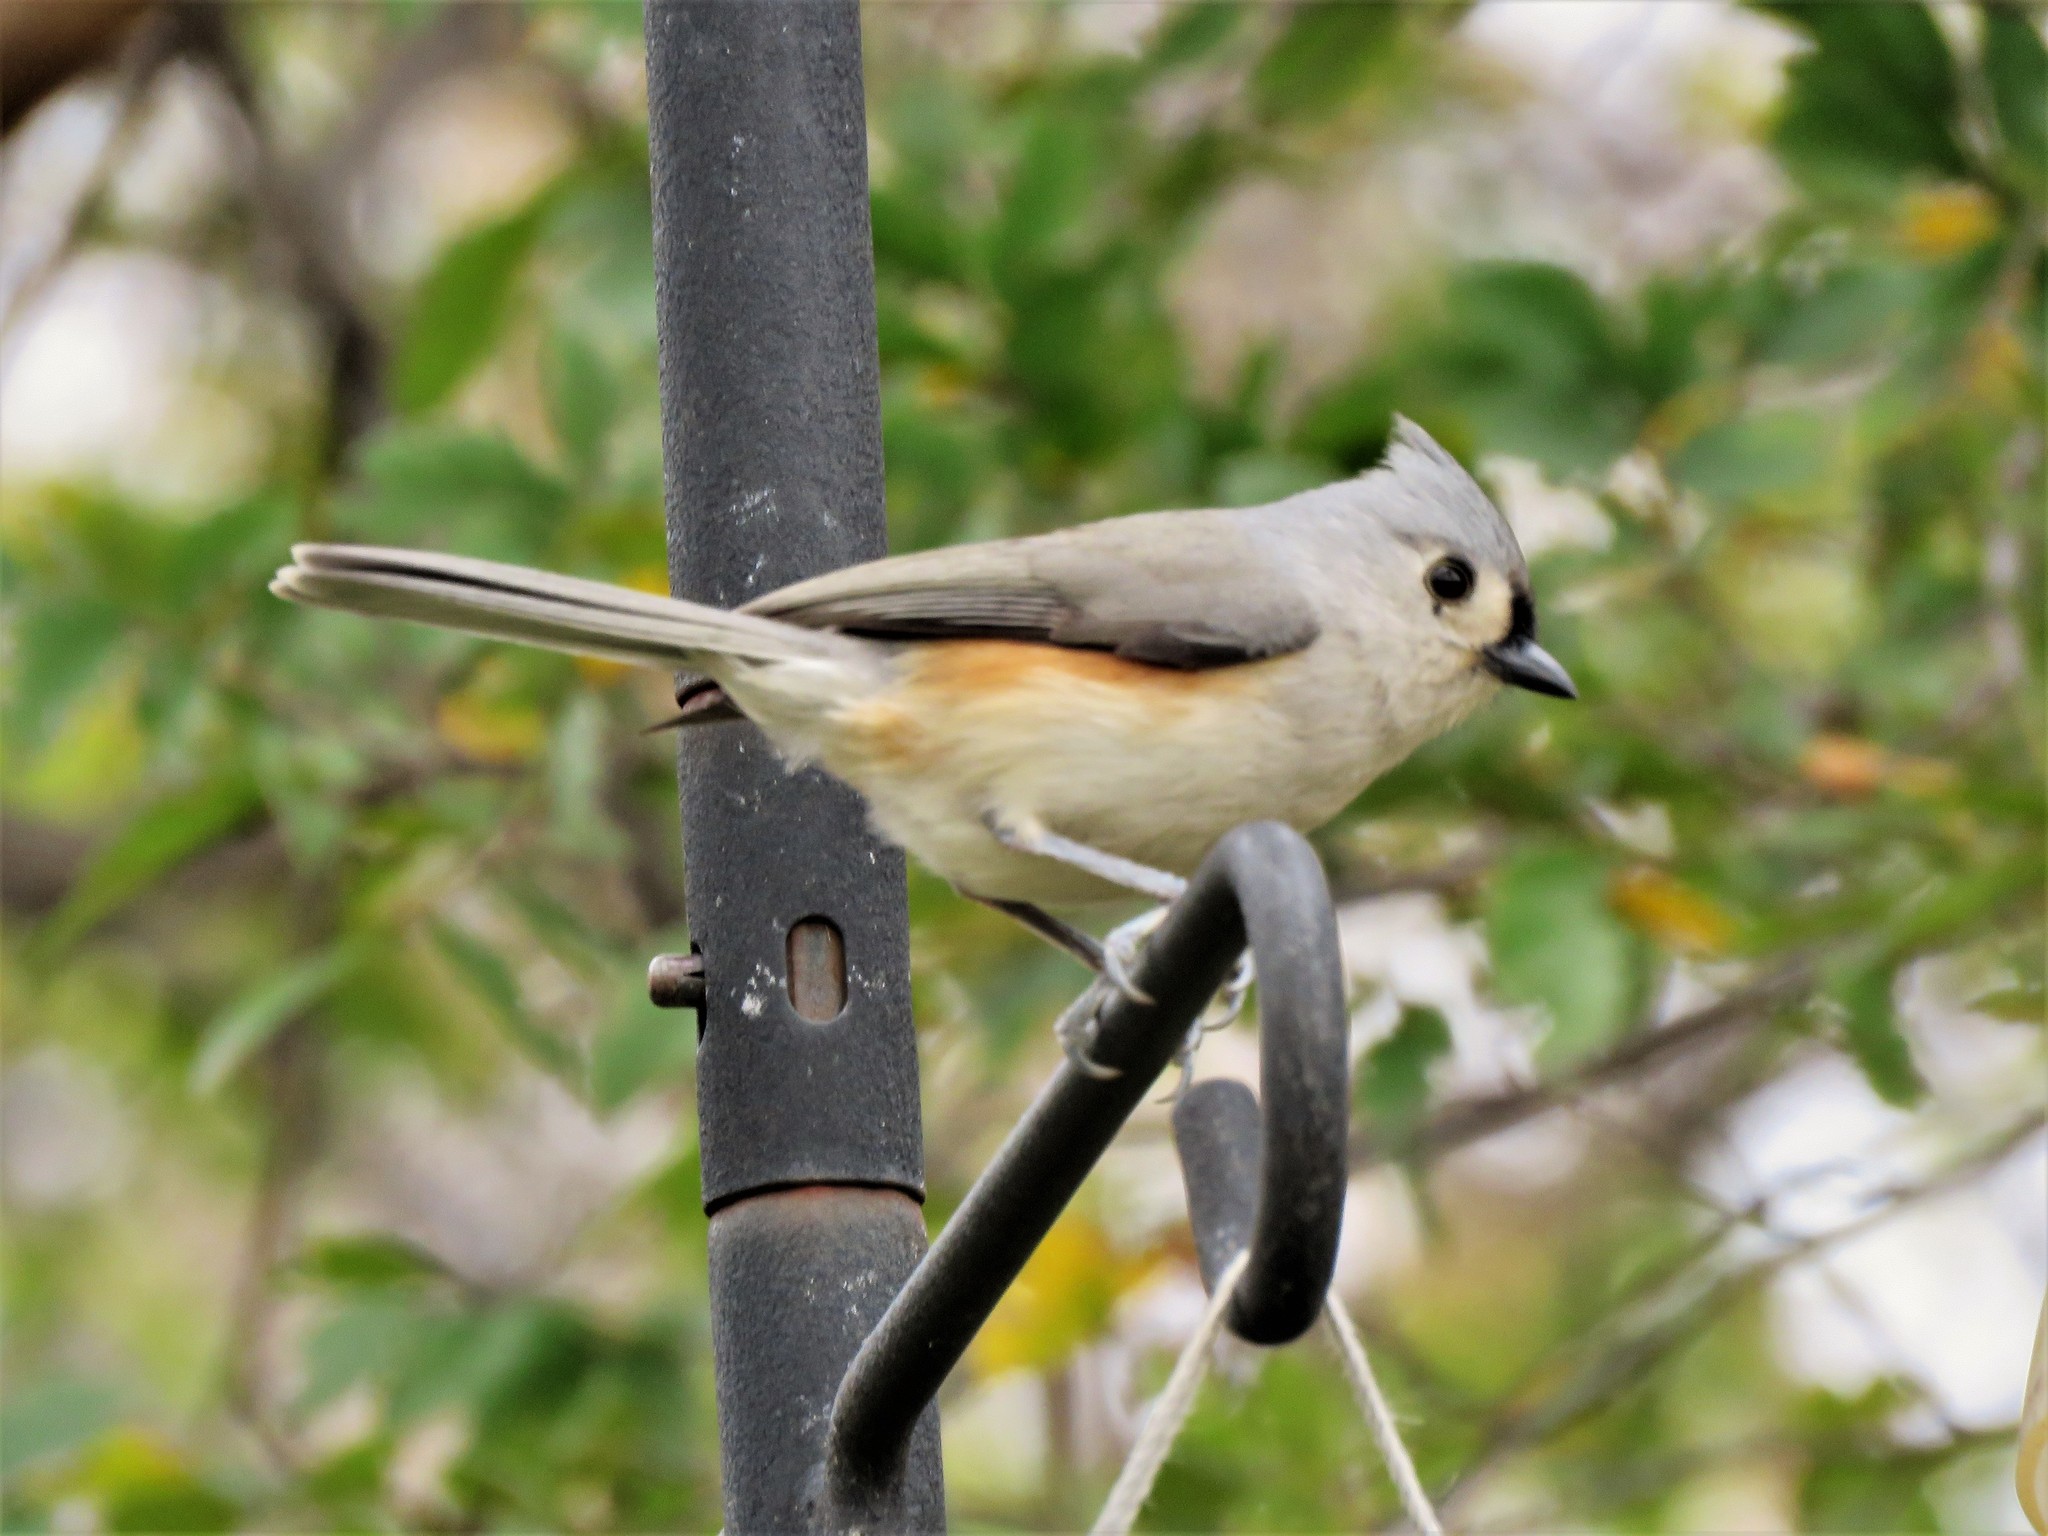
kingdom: Animalia
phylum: Chordata
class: Aves
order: Passeriformes
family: Paridae
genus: Baeolophus
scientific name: Baeolophus bicolor
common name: Tufted titmouse
